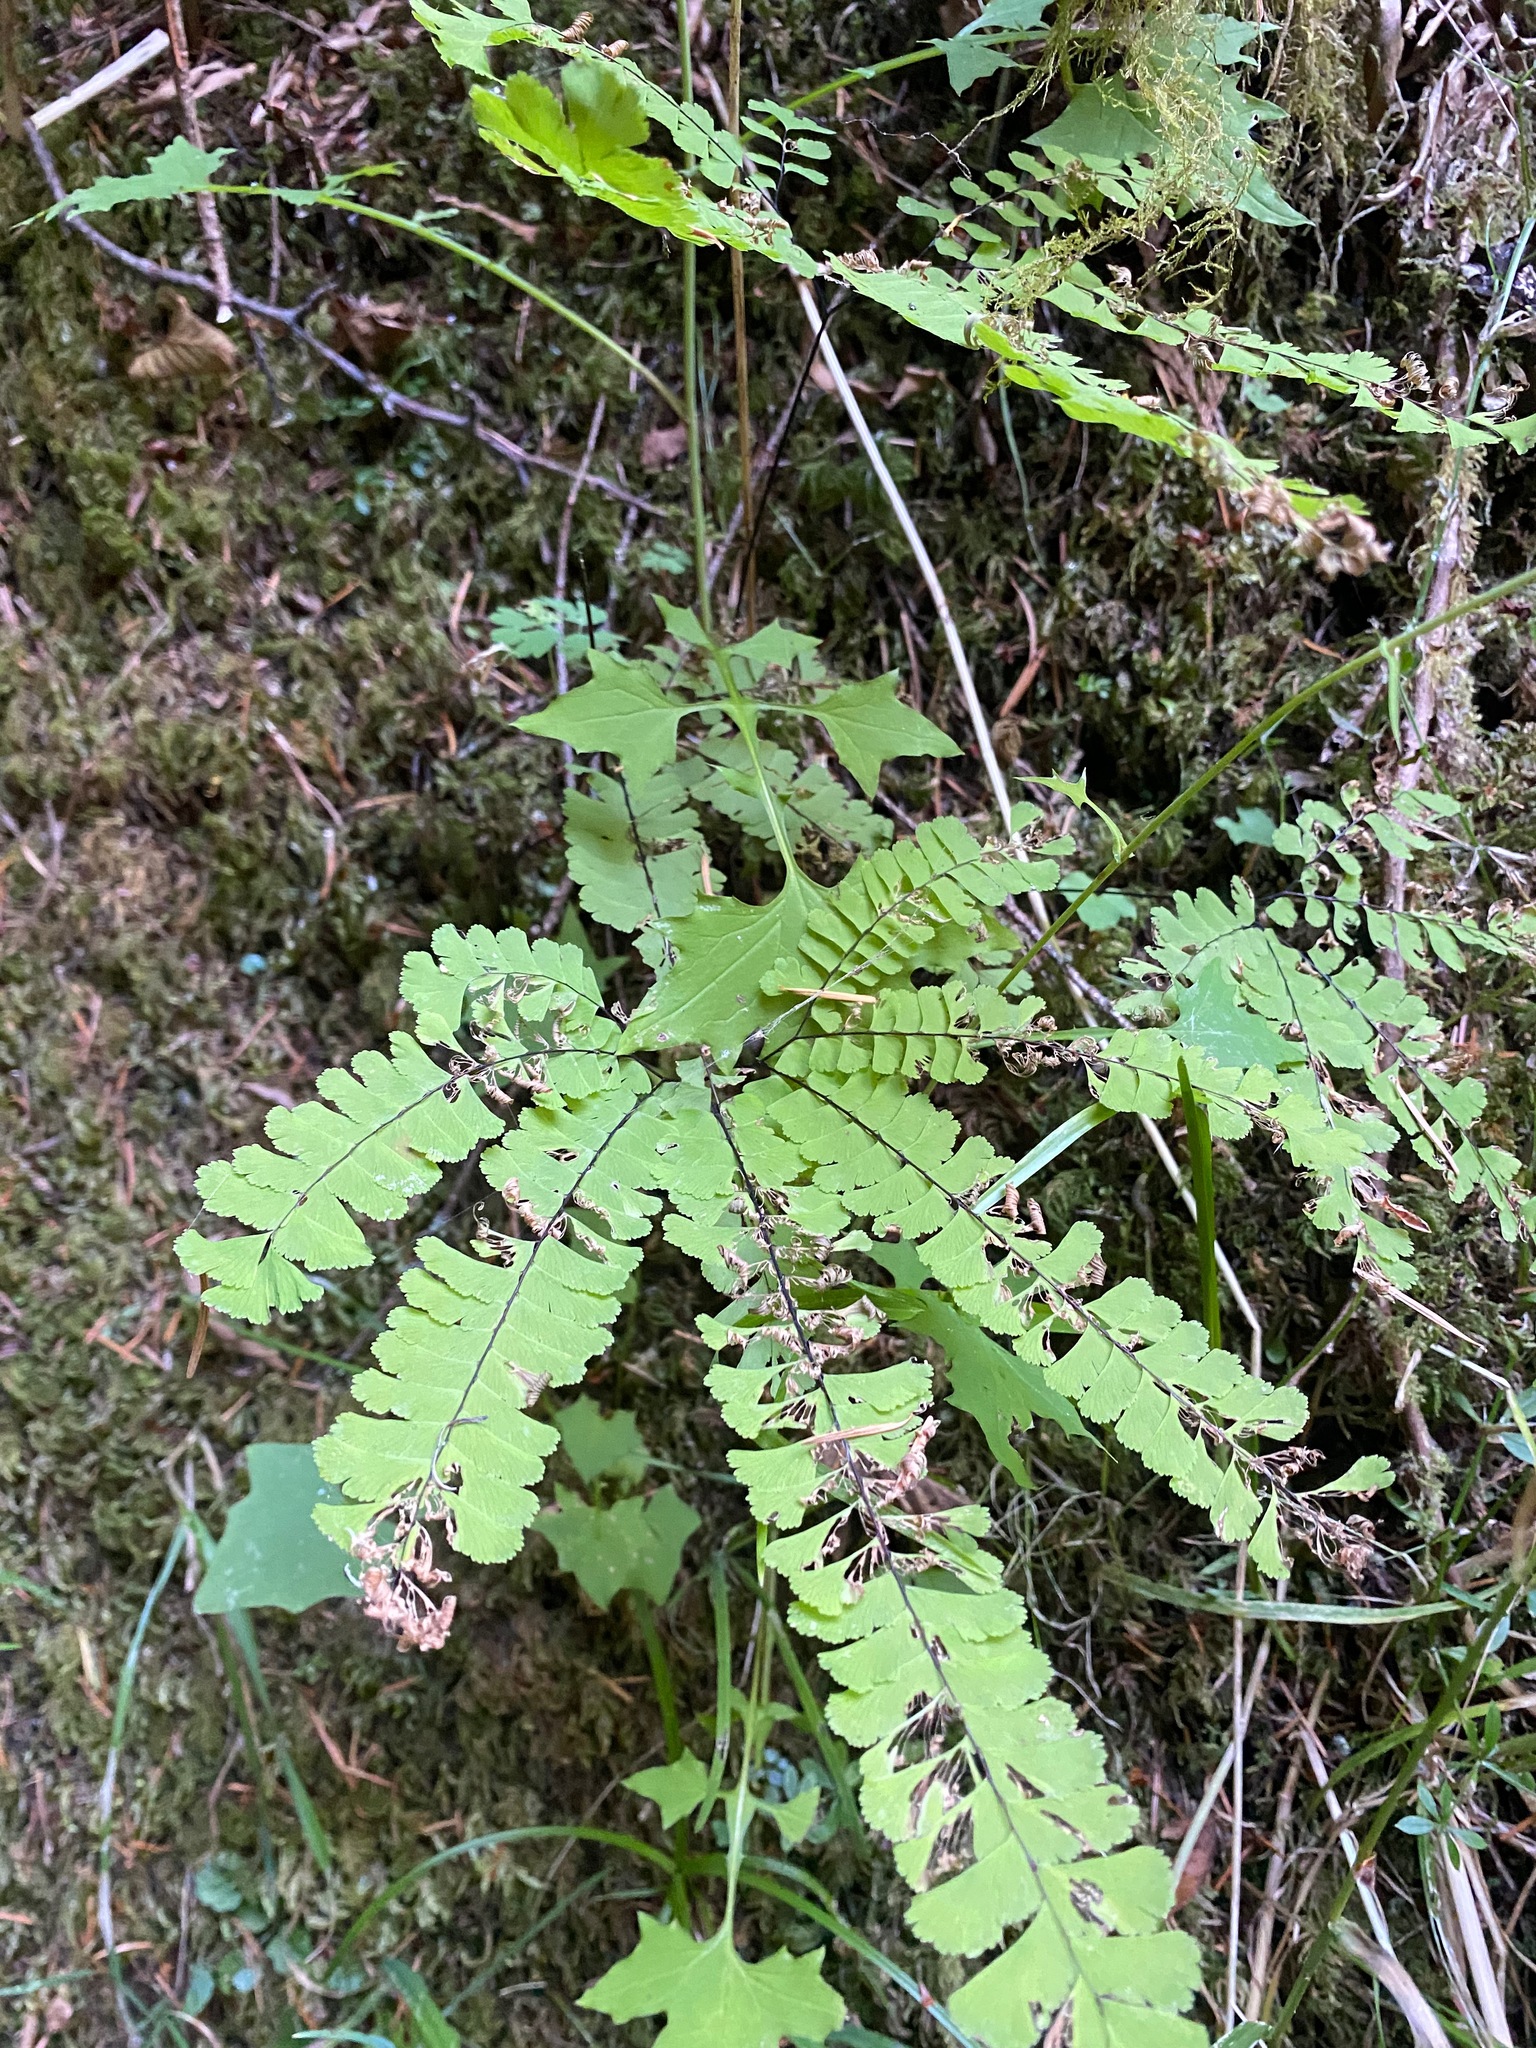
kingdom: Plantae
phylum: Tracheophyta
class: Polypodiopsida
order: Polypodiales
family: Pteridaceae
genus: Adiantum
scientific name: Adiantum aleuticum
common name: Aleutian maidenhair fern
